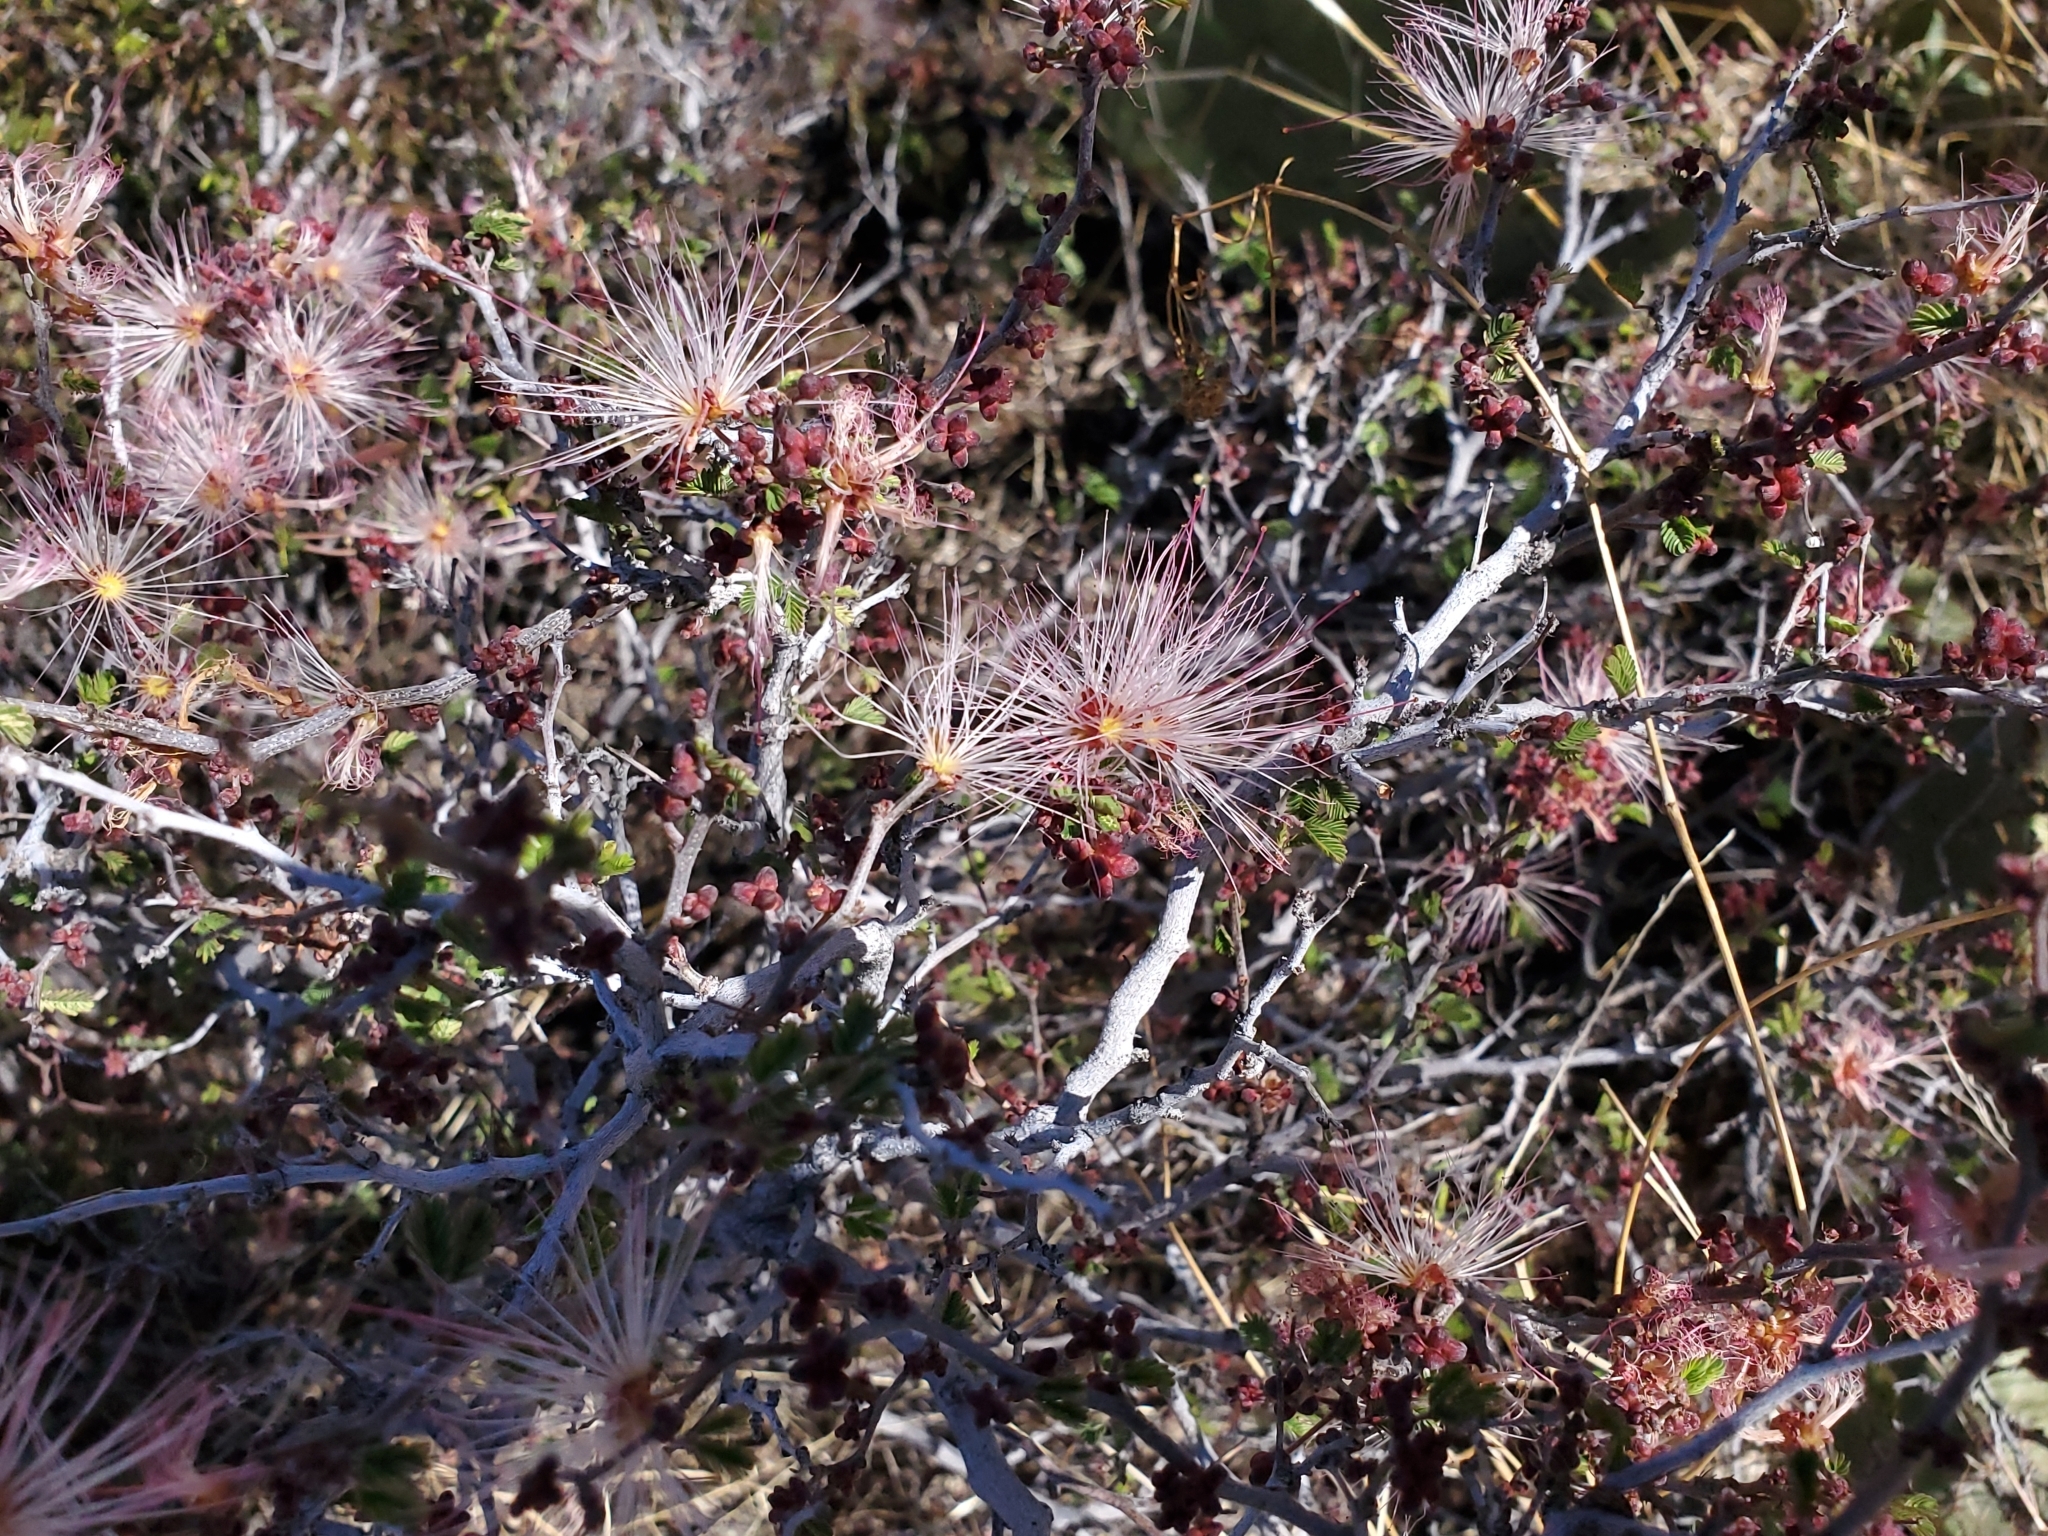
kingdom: Plantae
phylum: Tracheophyta
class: Magnoliopsida
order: Fabales
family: Fabaceae
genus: Calliandra
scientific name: Calliandra eriophylla
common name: Fairy-duster
